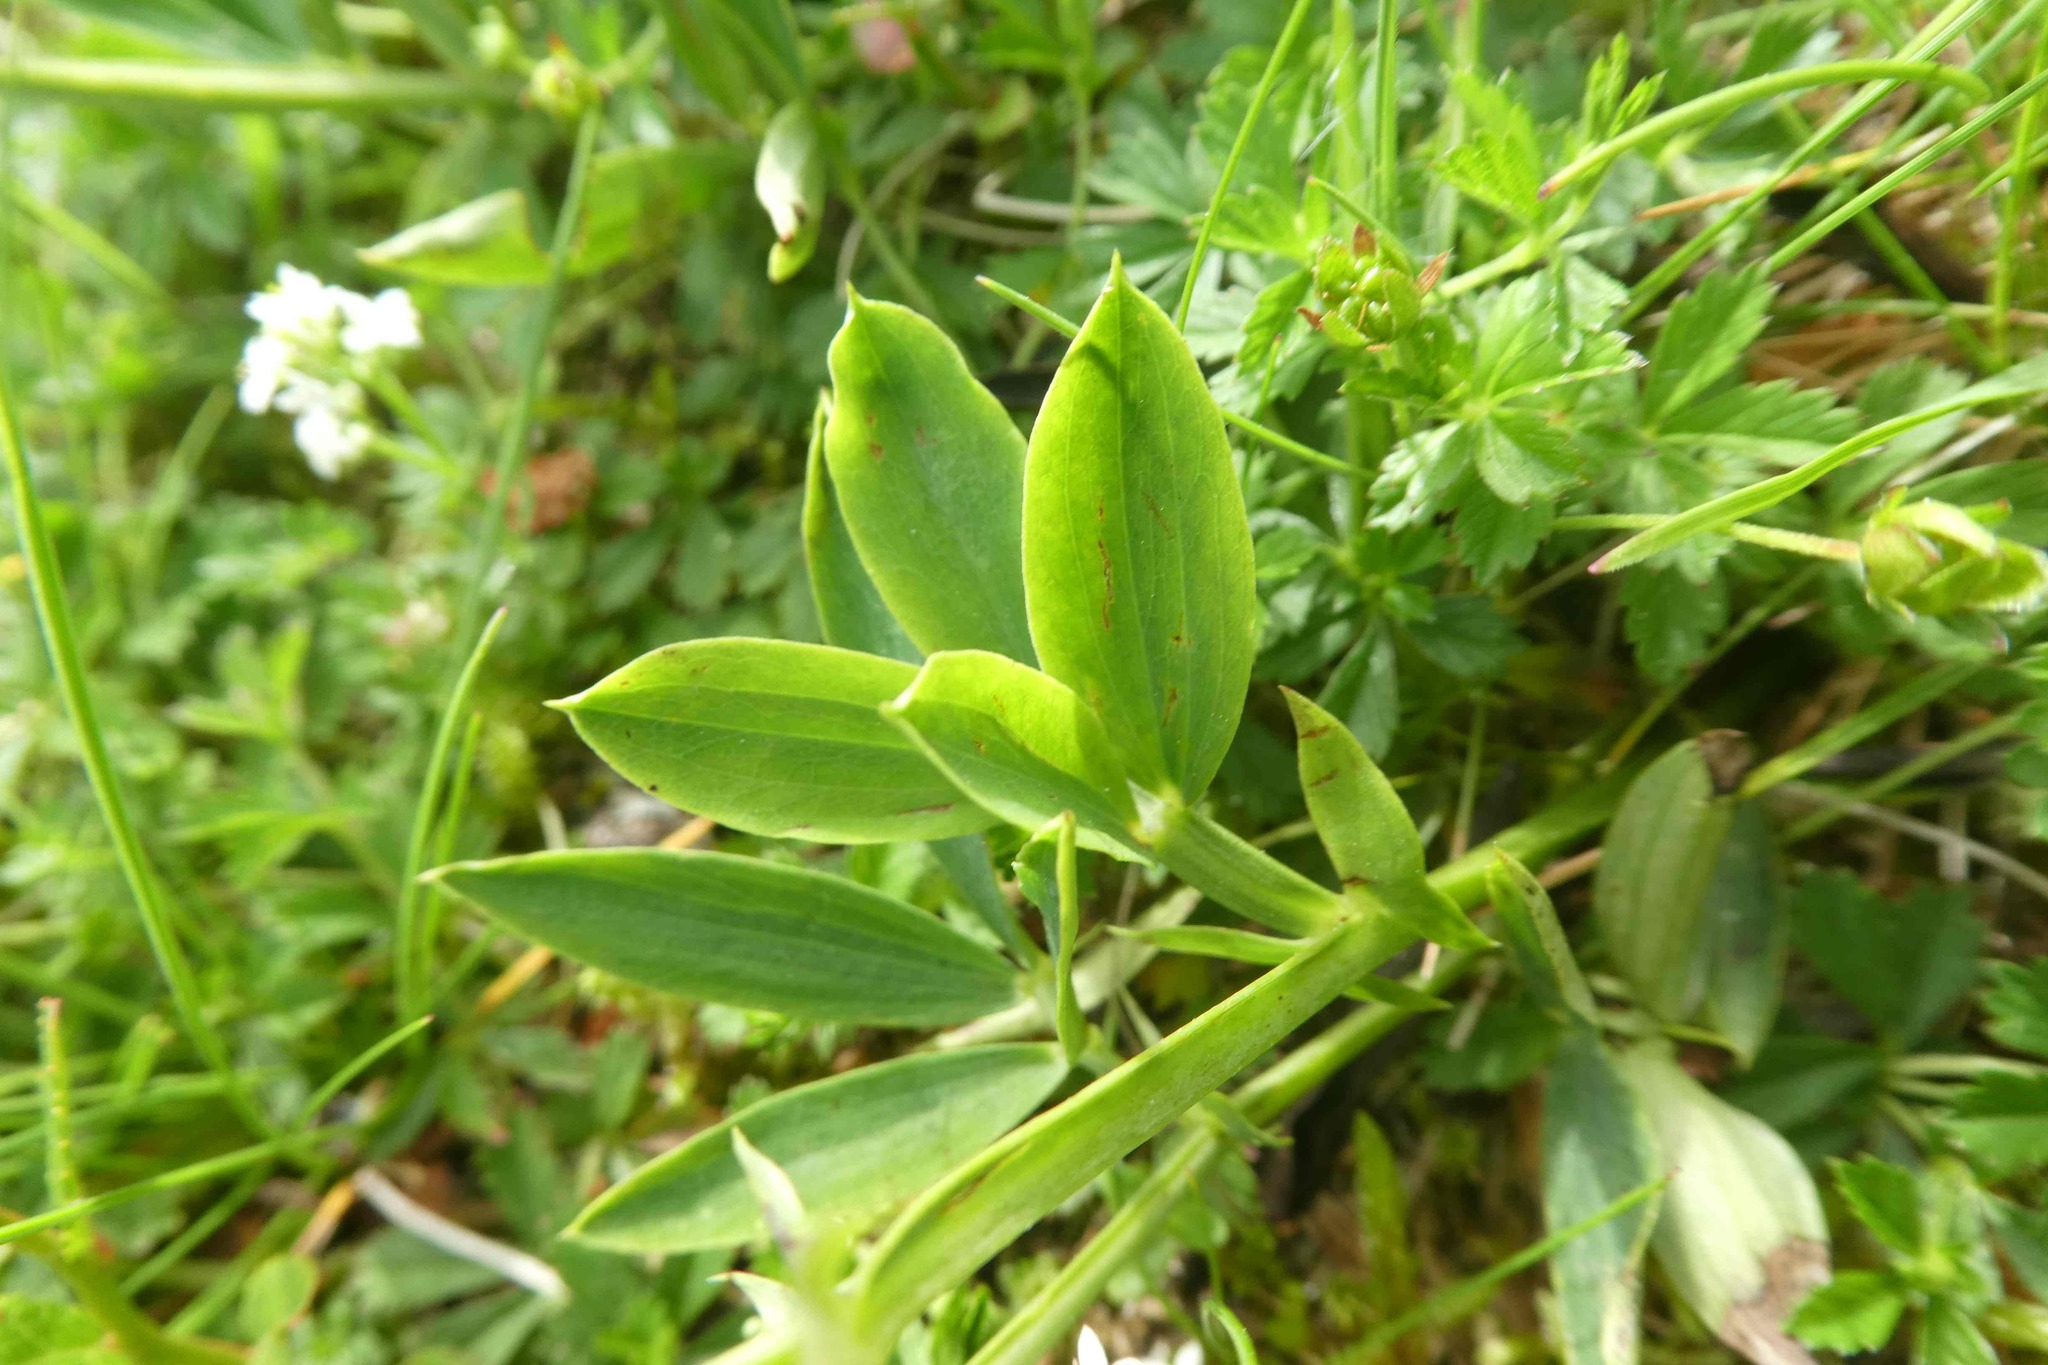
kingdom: Plantae
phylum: Tracheophyta
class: Magnoliopsida
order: Fabales
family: Fabaceae
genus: Lathyrus
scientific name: Lathyrus linifolius
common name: Bitter-vetch
